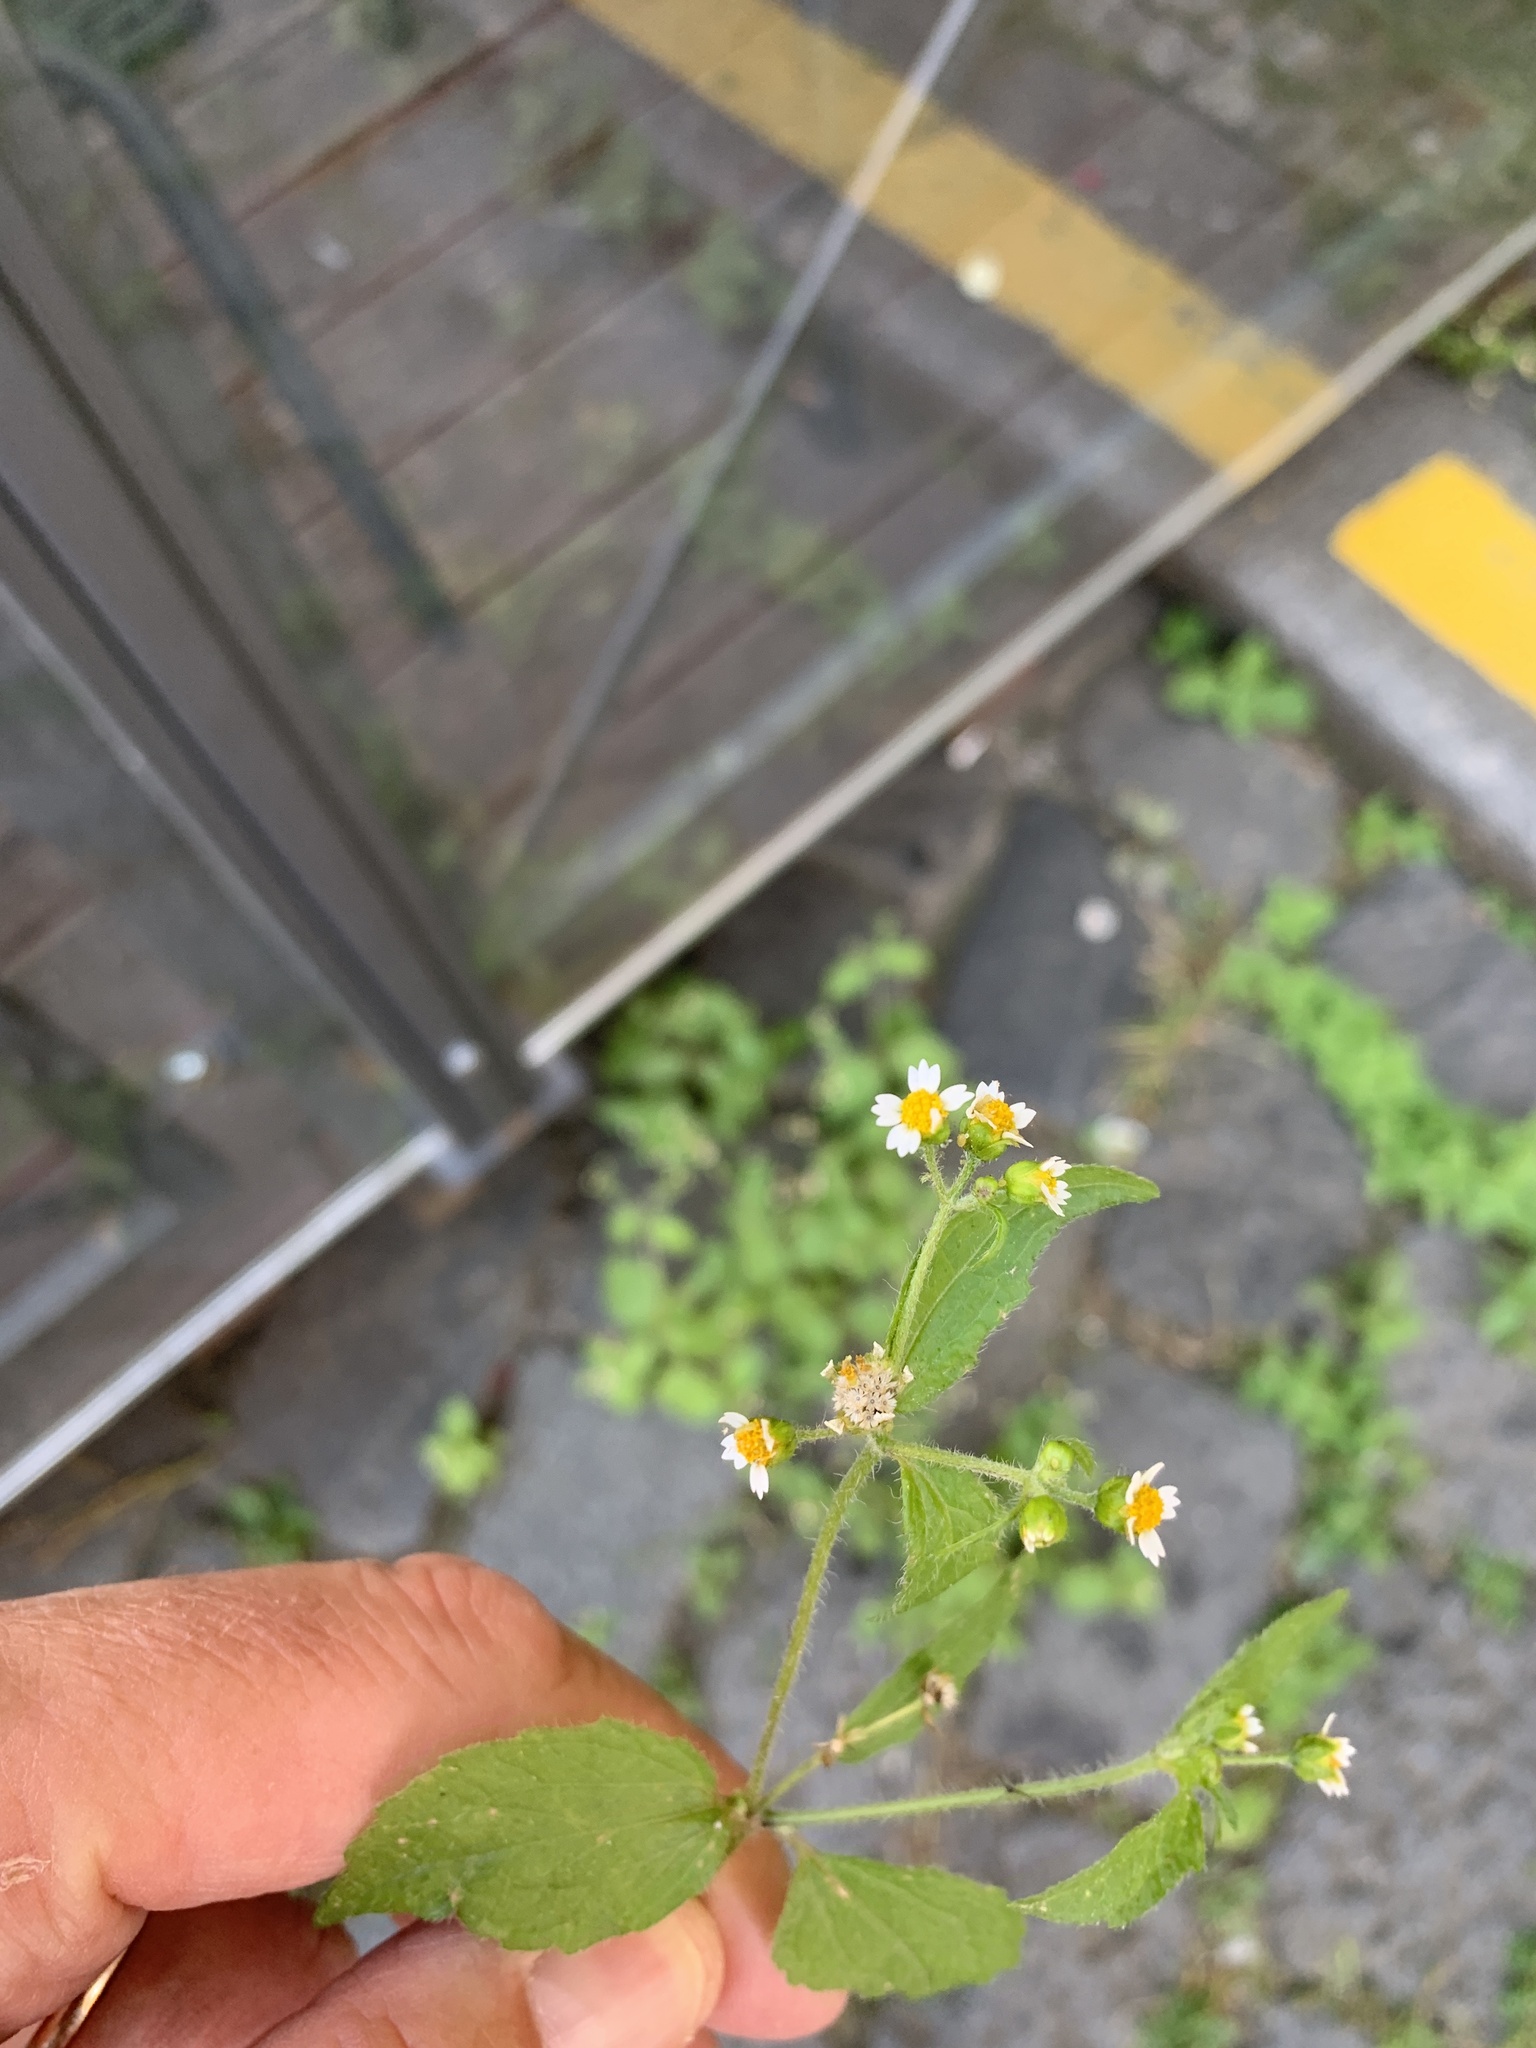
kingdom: Plantae
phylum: Tracheophyta
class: Magnoliopsida
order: Asterales
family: Asteraceae
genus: Galinsoga
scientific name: Galinsoga quadriradiata
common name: Shaggy soldier
